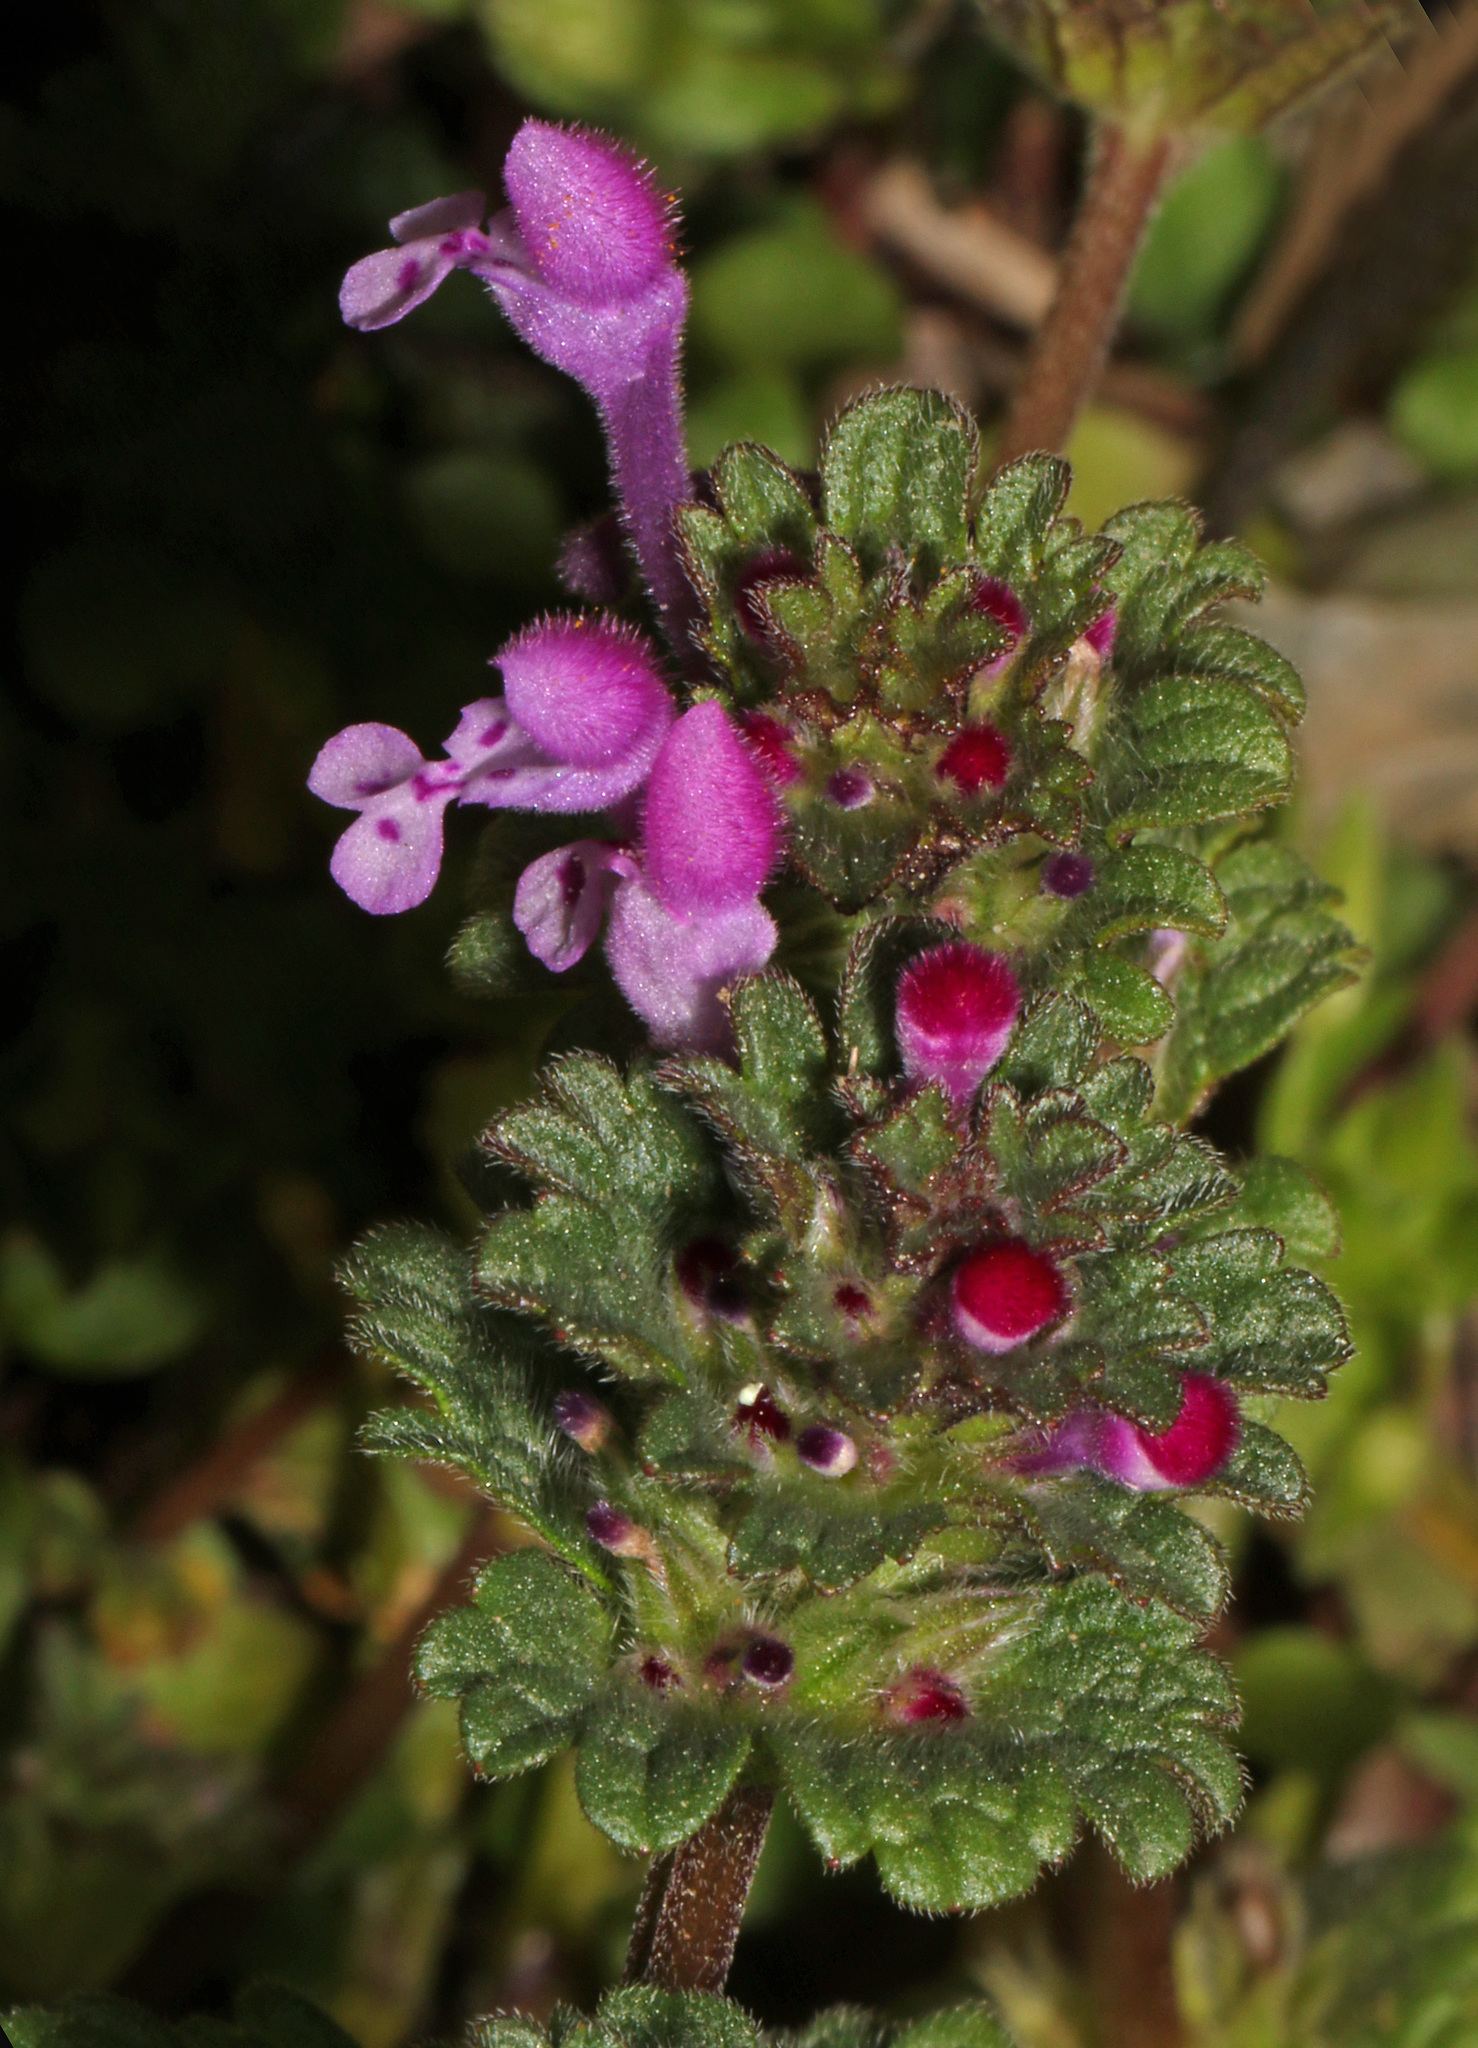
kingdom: Plantae
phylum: Tracheophyta
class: Magnoliopsida
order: Lamiales
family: Lamiaceae
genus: Lamium
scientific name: Lamium amplexicaule
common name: Henbit dead-nettle
